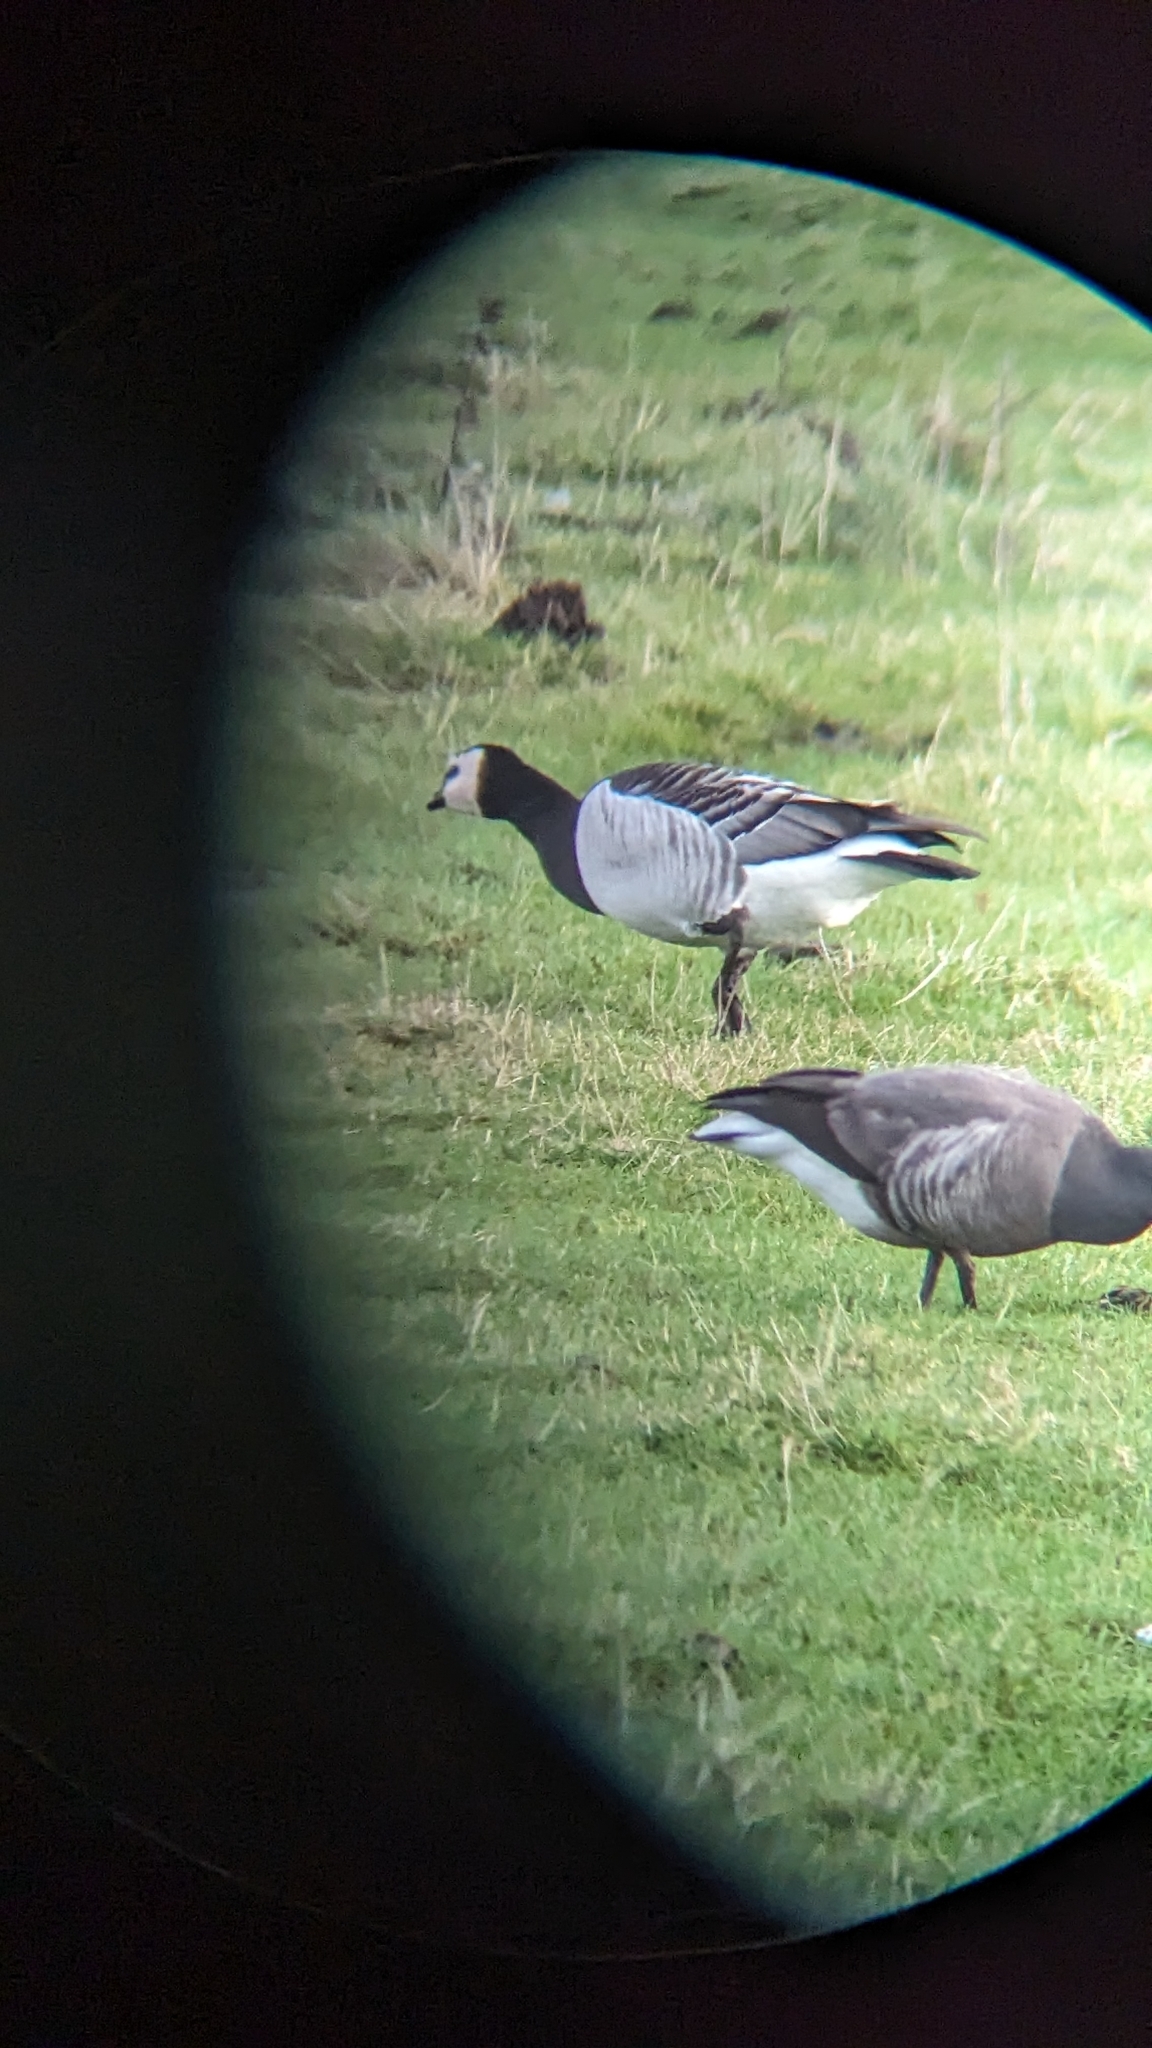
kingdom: Animalia
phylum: Chordata
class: Aves
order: Anseriformes
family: Anatidae
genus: Branta
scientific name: Branta leucopsis
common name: Barnacle goose
